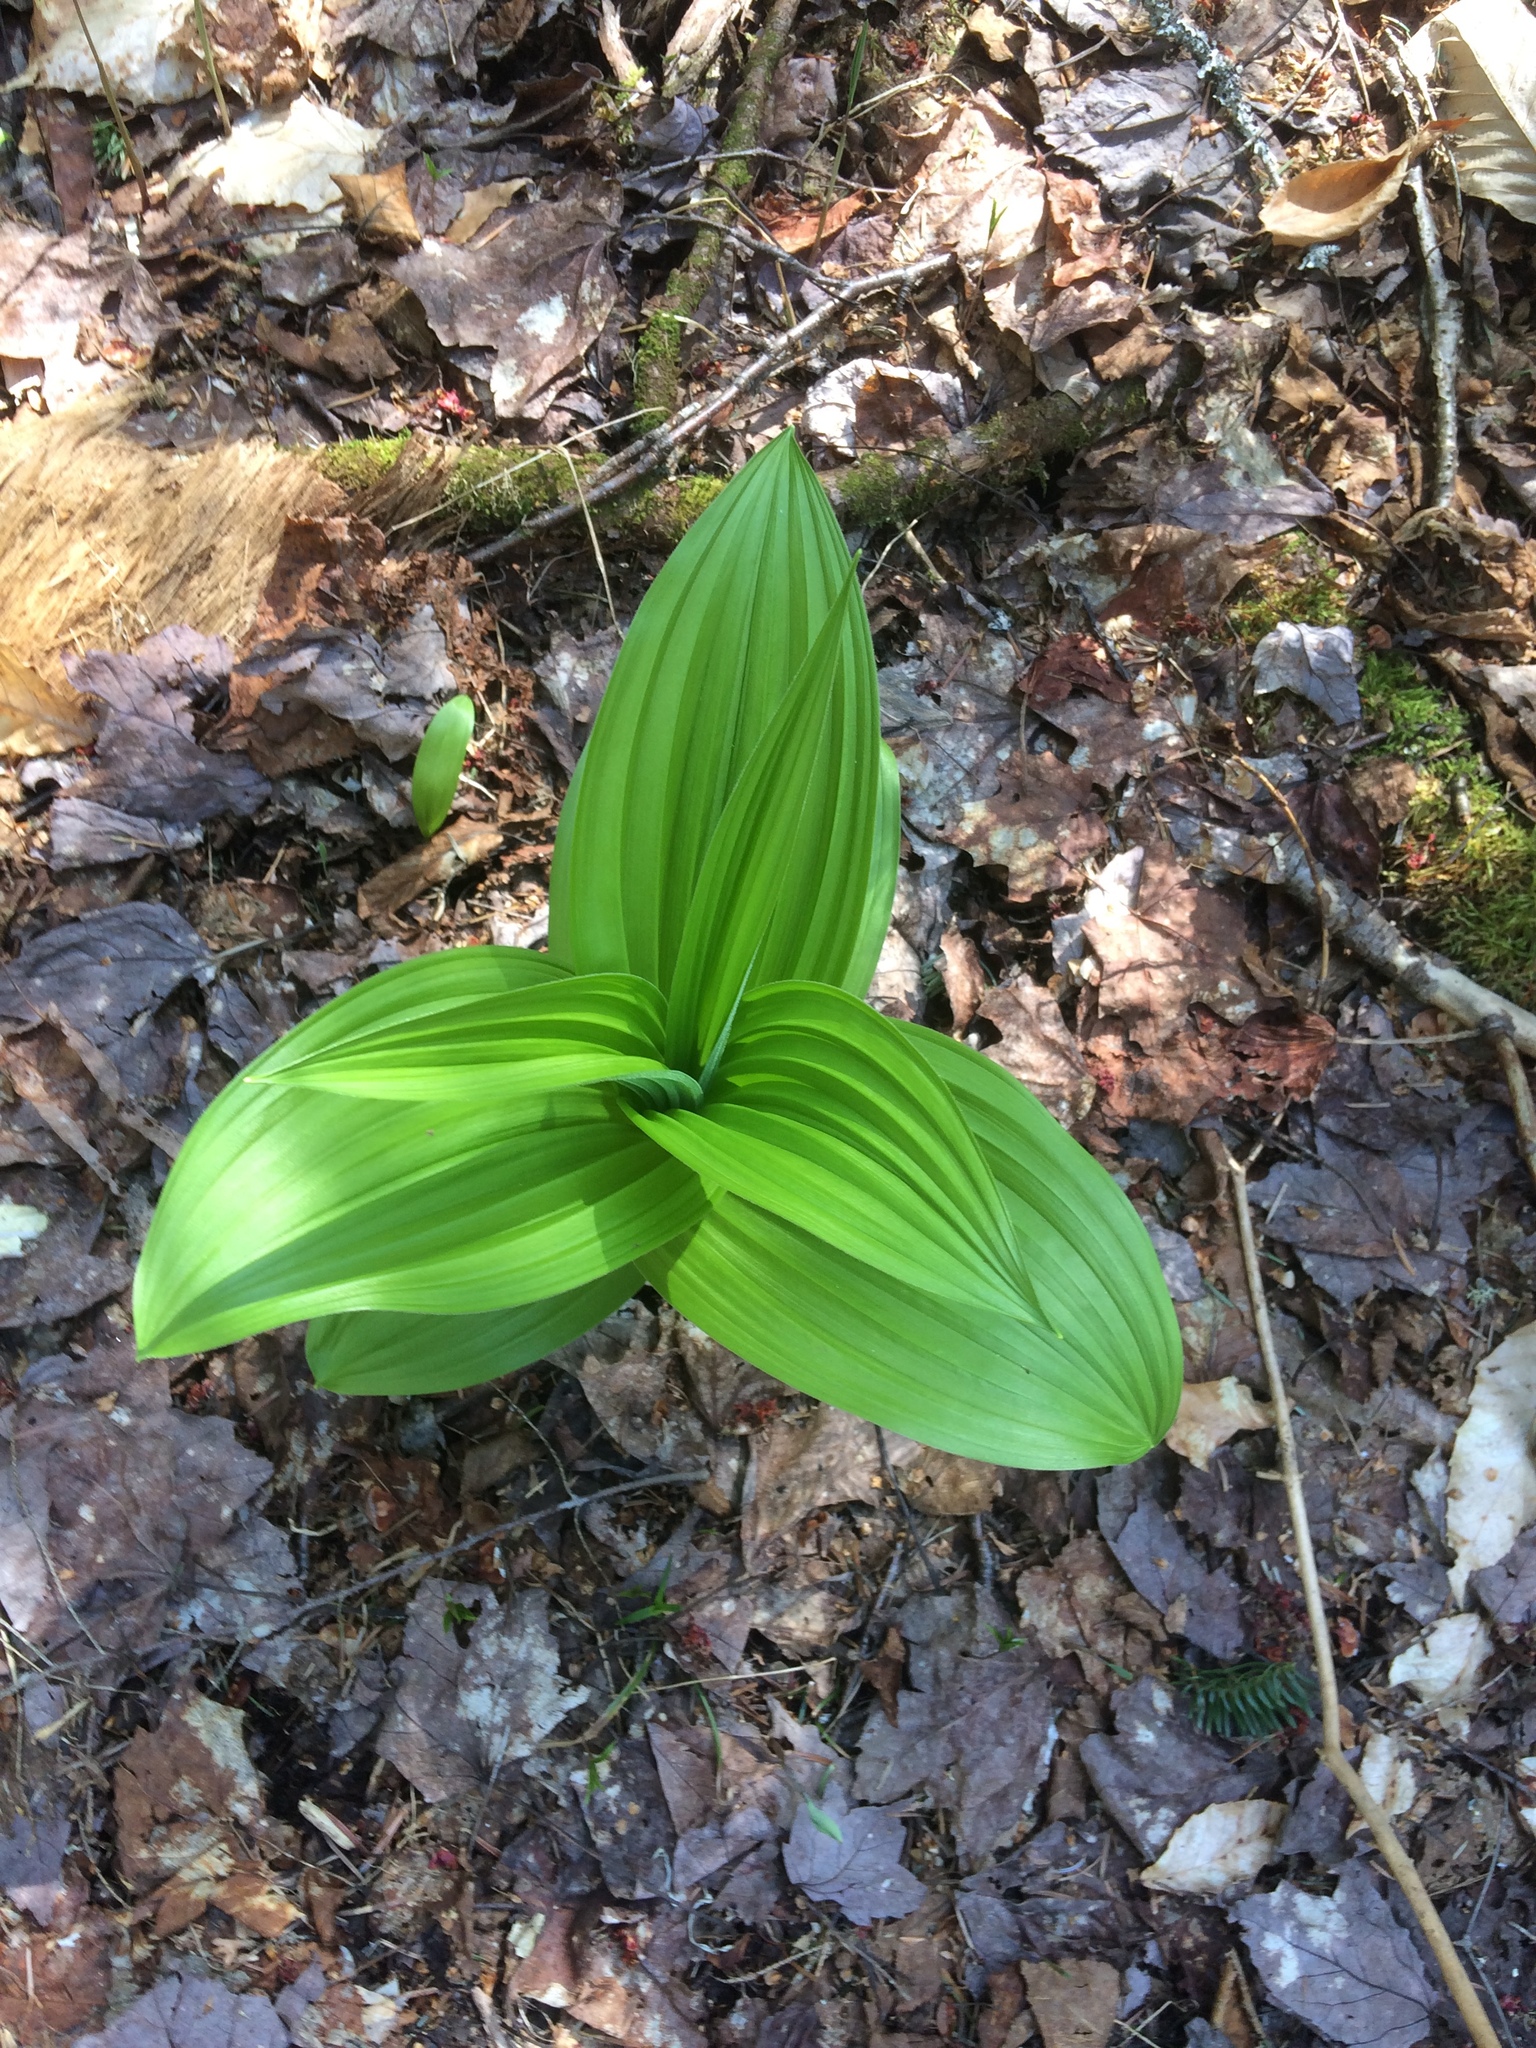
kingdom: Plantae
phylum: Tracheophyta
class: Liliopsida
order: Liliales
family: Melanthiaceae
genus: Veratrum
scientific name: Veratrum viride
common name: American false hellebore
